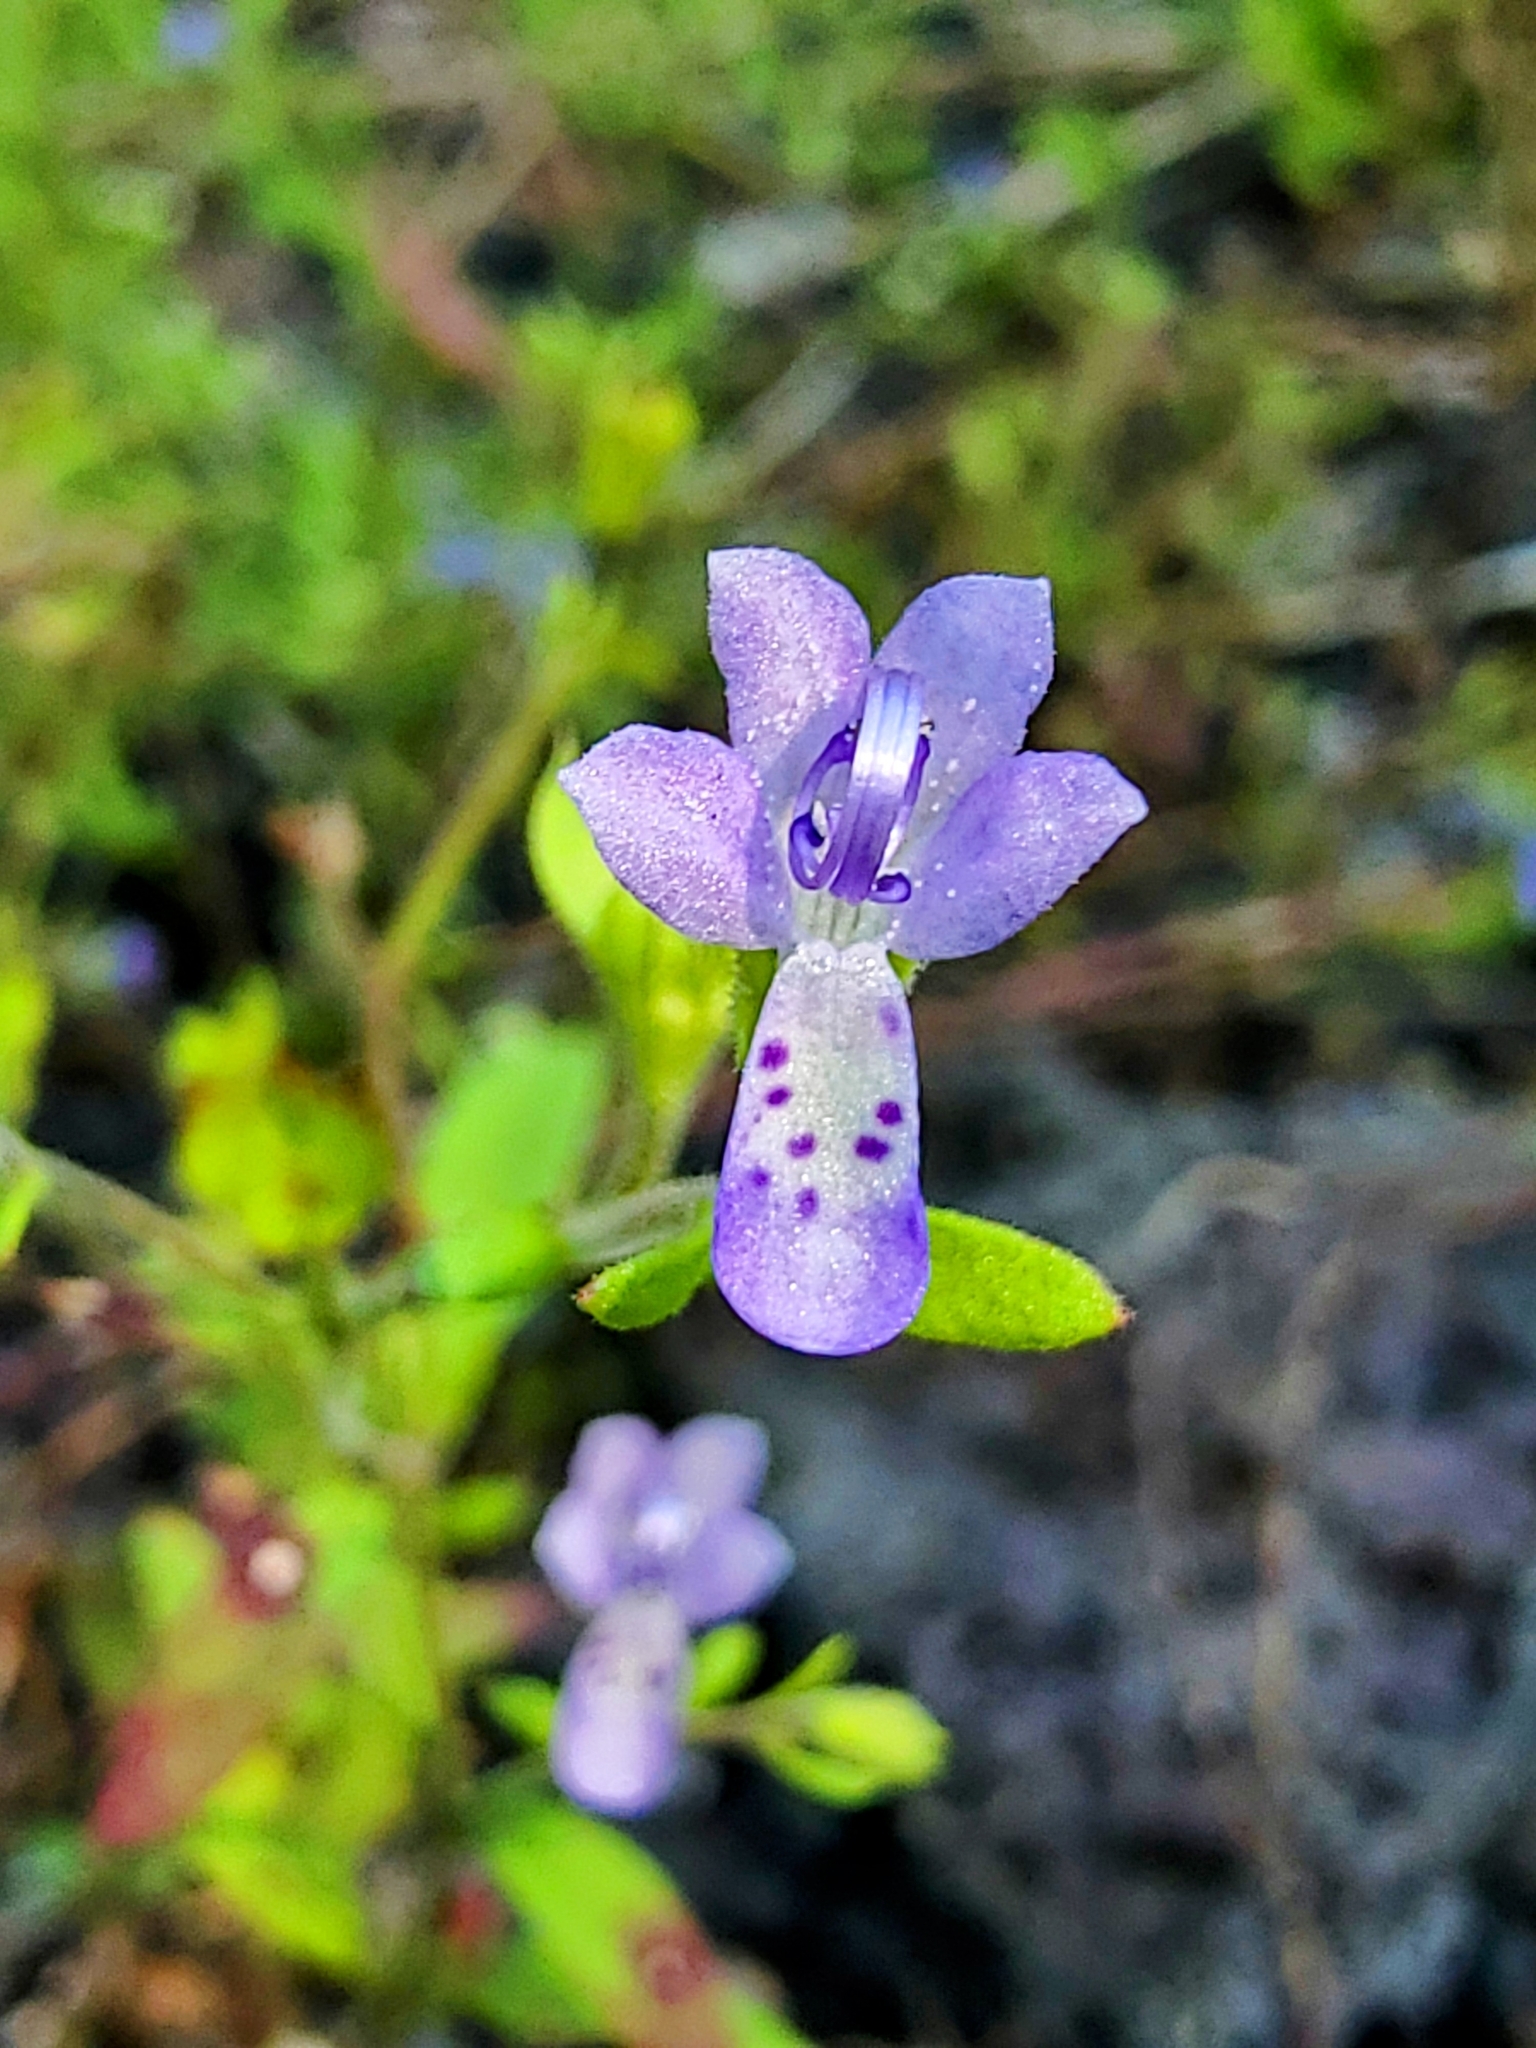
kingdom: Plantae
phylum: Tracheophyta
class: Magnoliopsida
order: Lamiales
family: Lamiaceae
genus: Trichostema
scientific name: Trichostema dichotomum
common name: Bastard pennyroyal
